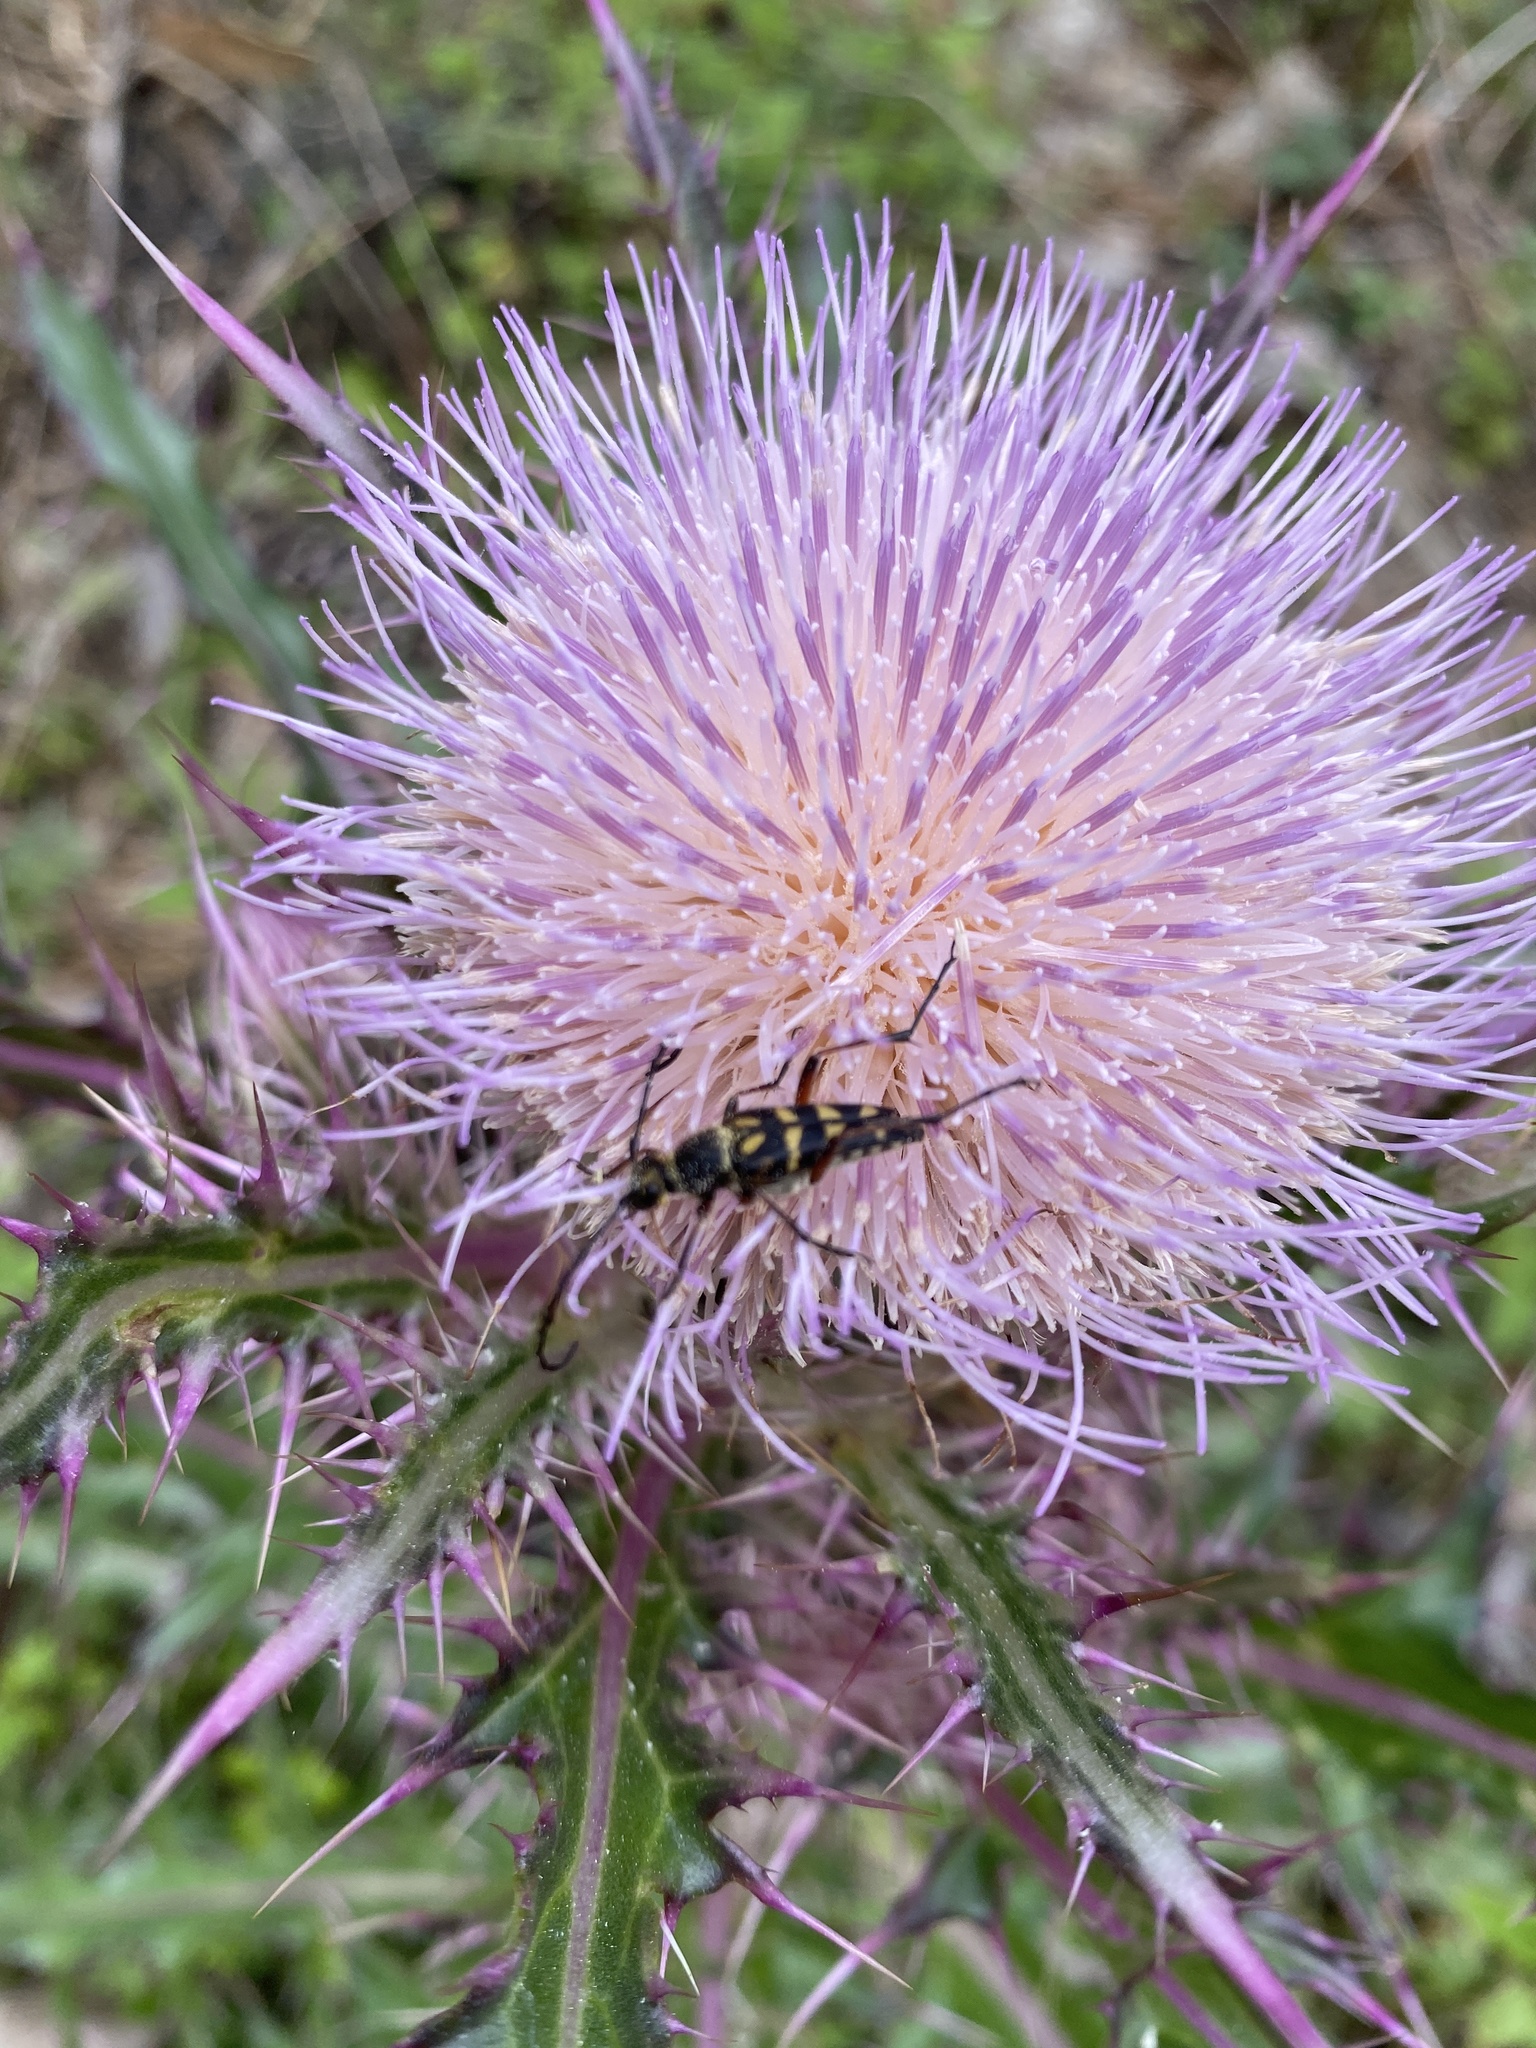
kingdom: Animalia
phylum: Arthropoda
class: Insecta
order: Coleoptera
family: Cerambycidae
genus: Typocerus
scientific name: Typocerus zebra
